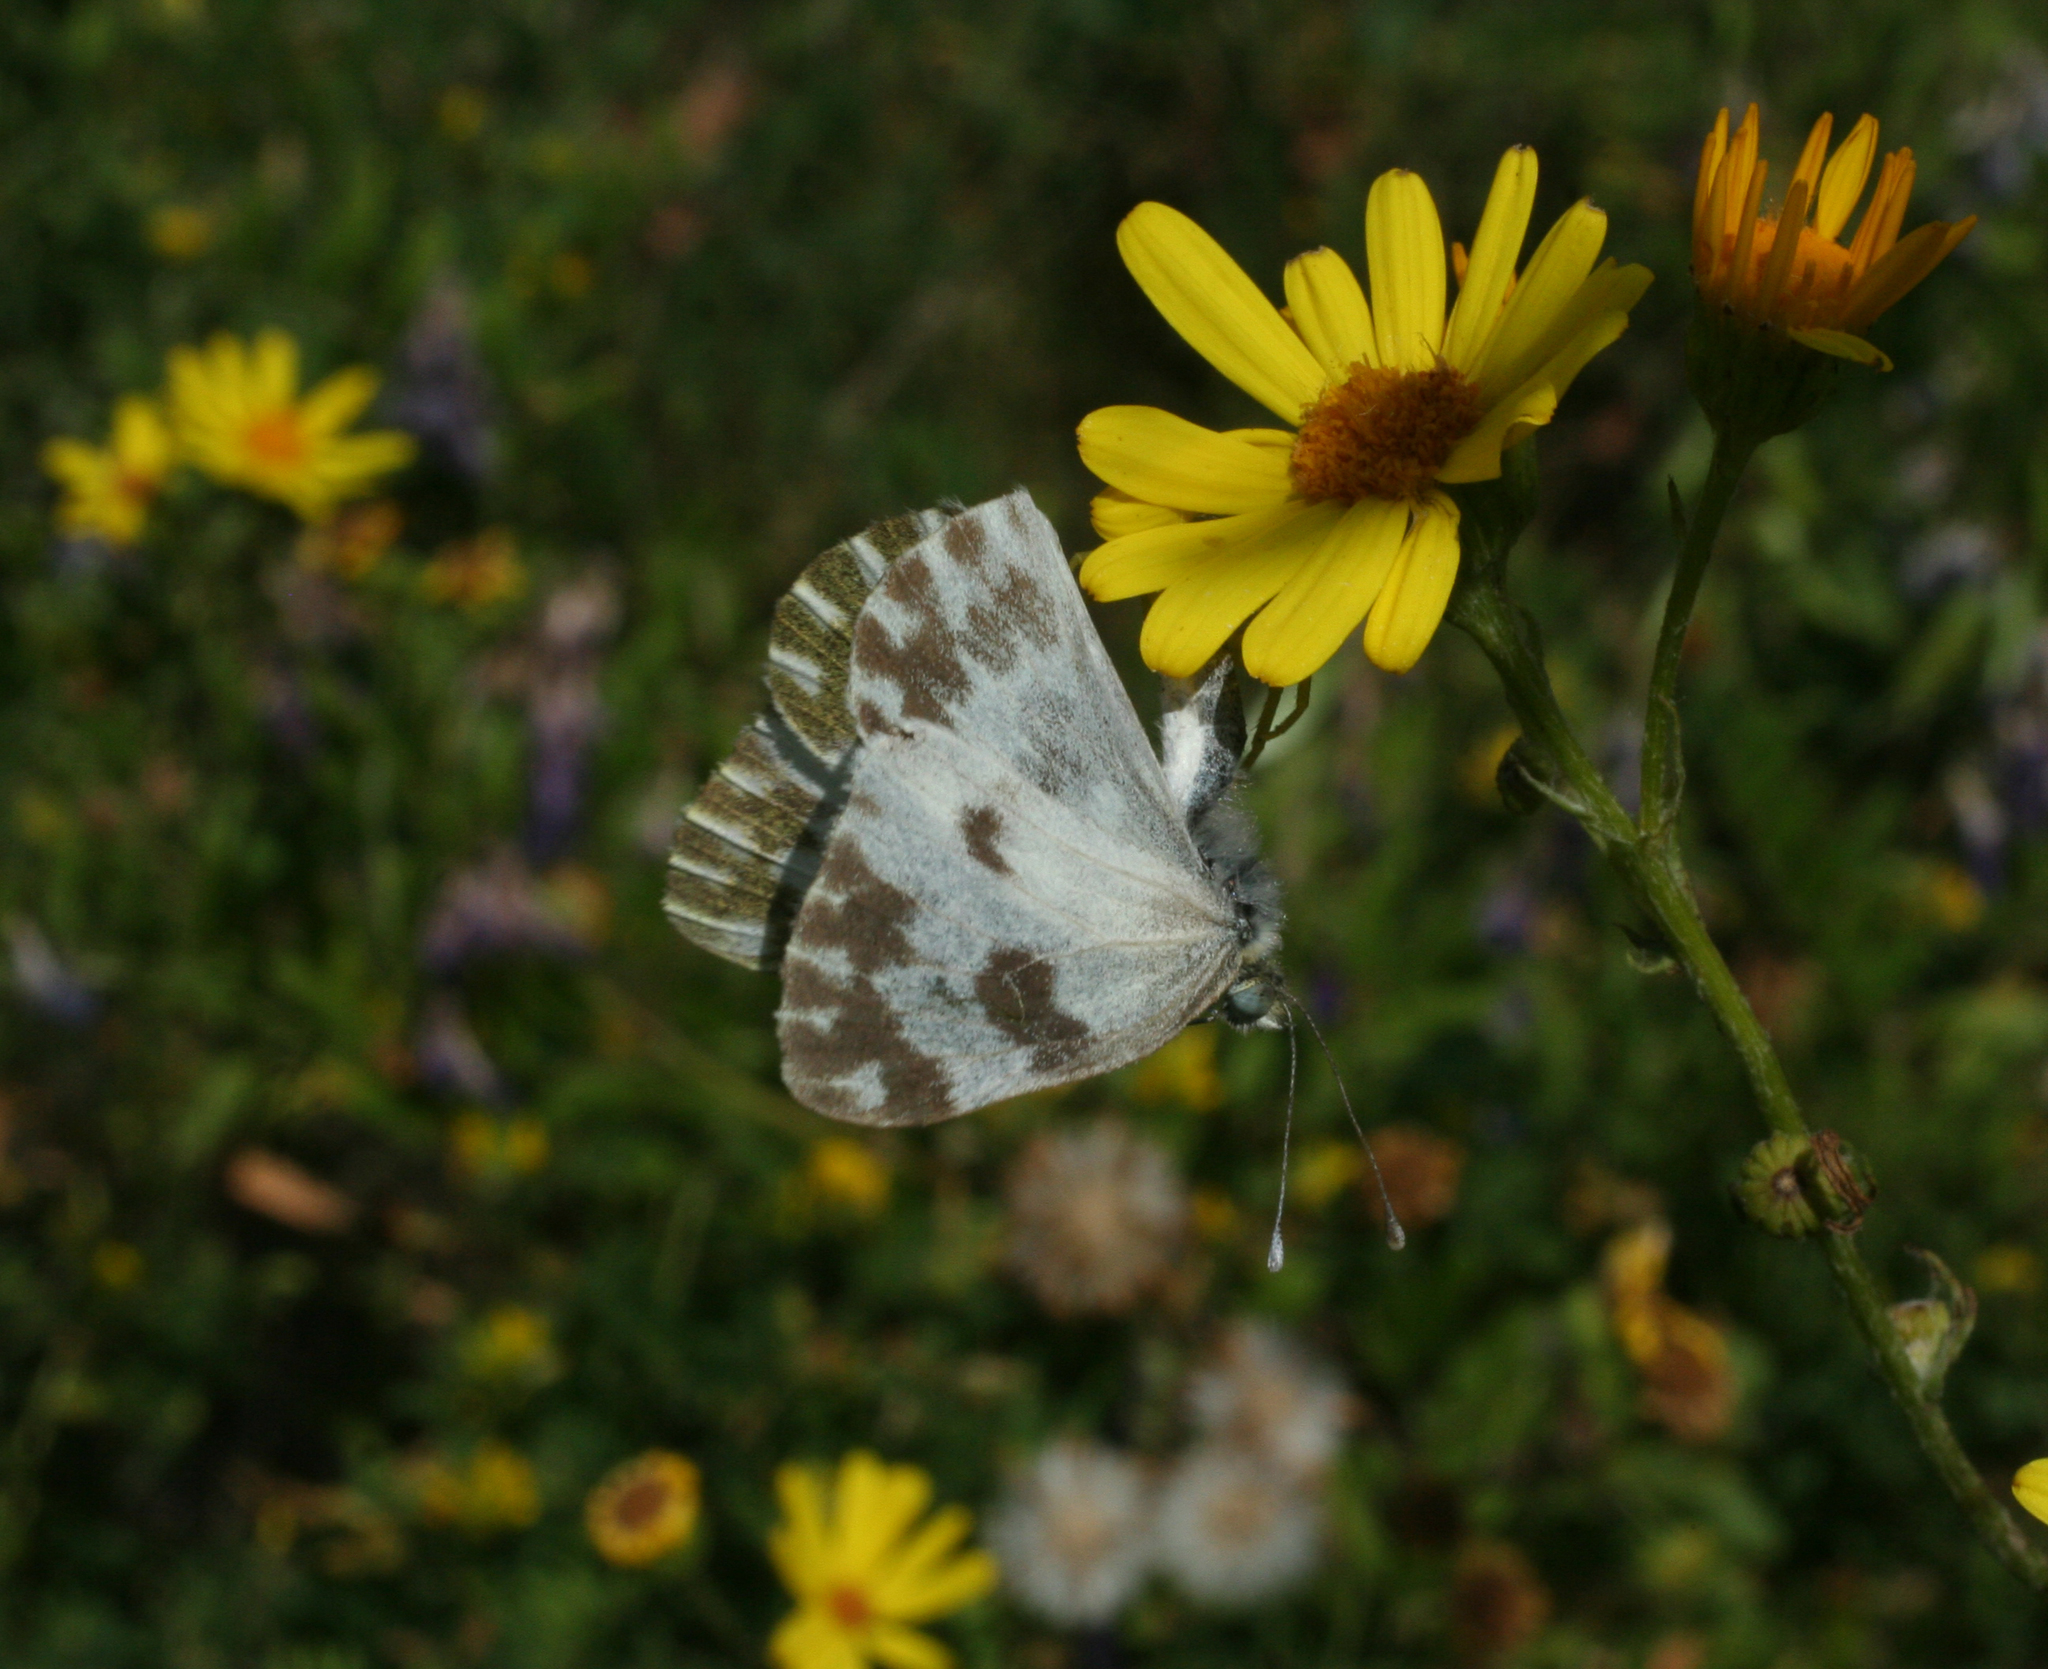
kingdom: Animalia
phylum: Arthropoda
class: Insecta
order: Lepidoptera
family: Pieridae
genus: Pontia
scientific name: Pontia edusa
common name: Eastern bath white
